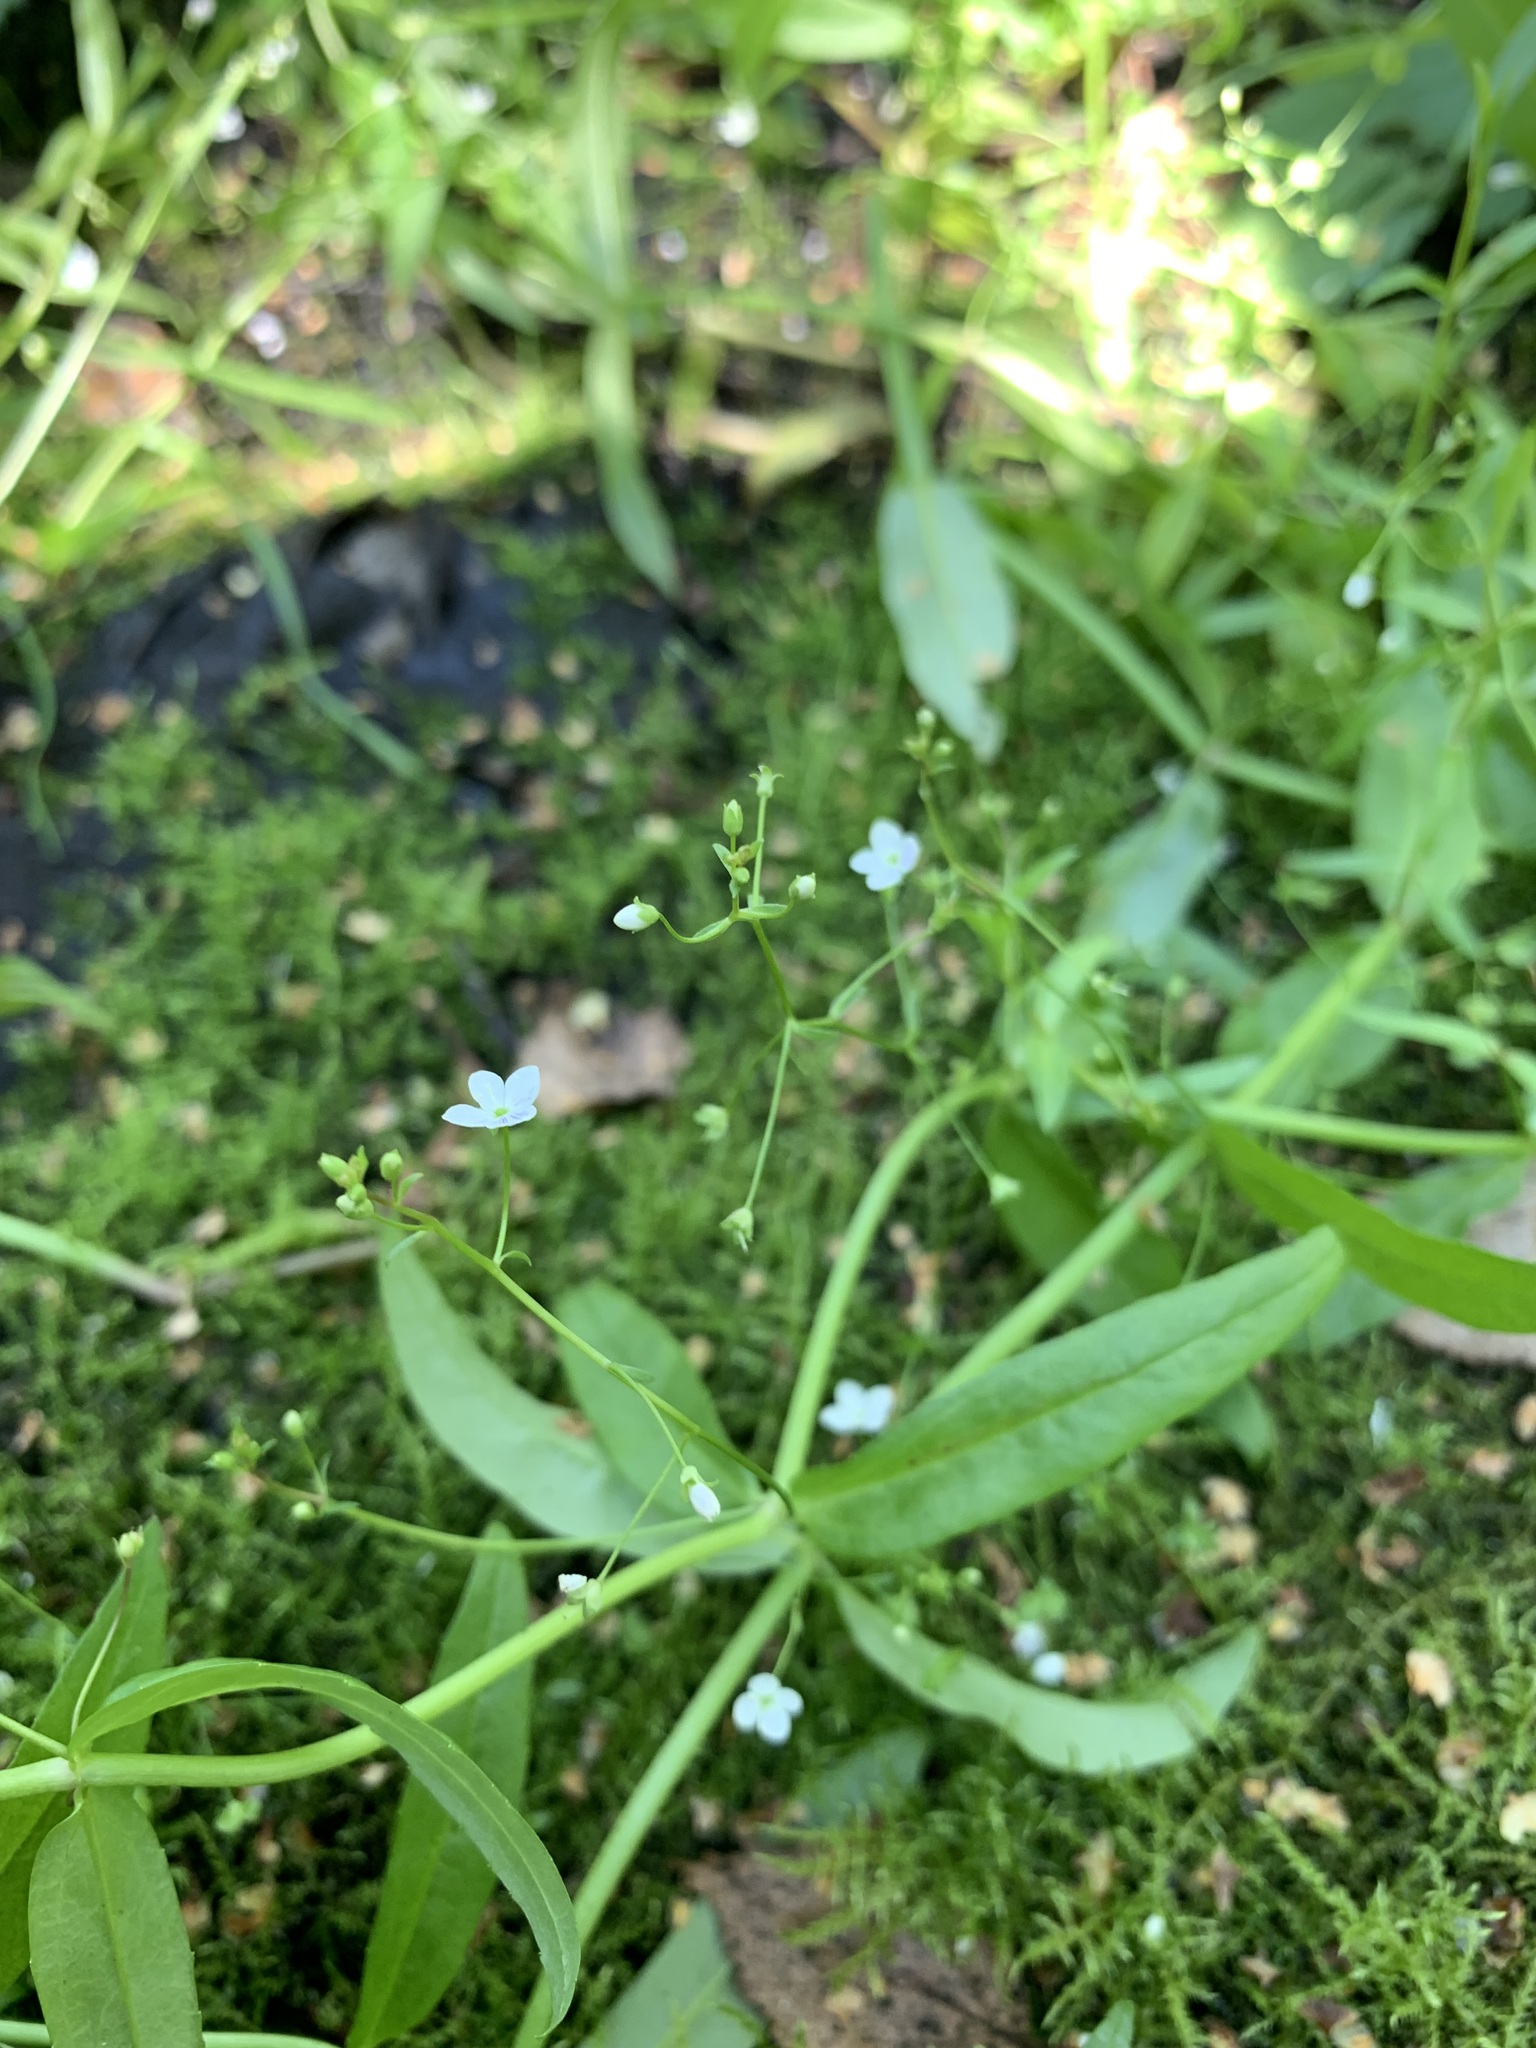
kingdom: Plantae
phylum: Tracheophyta
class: Magnoliopsida
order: Lamiales
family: Plantaginaceae
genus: Veronica
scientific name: Veronica scutellata
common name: Marsh speedwell
